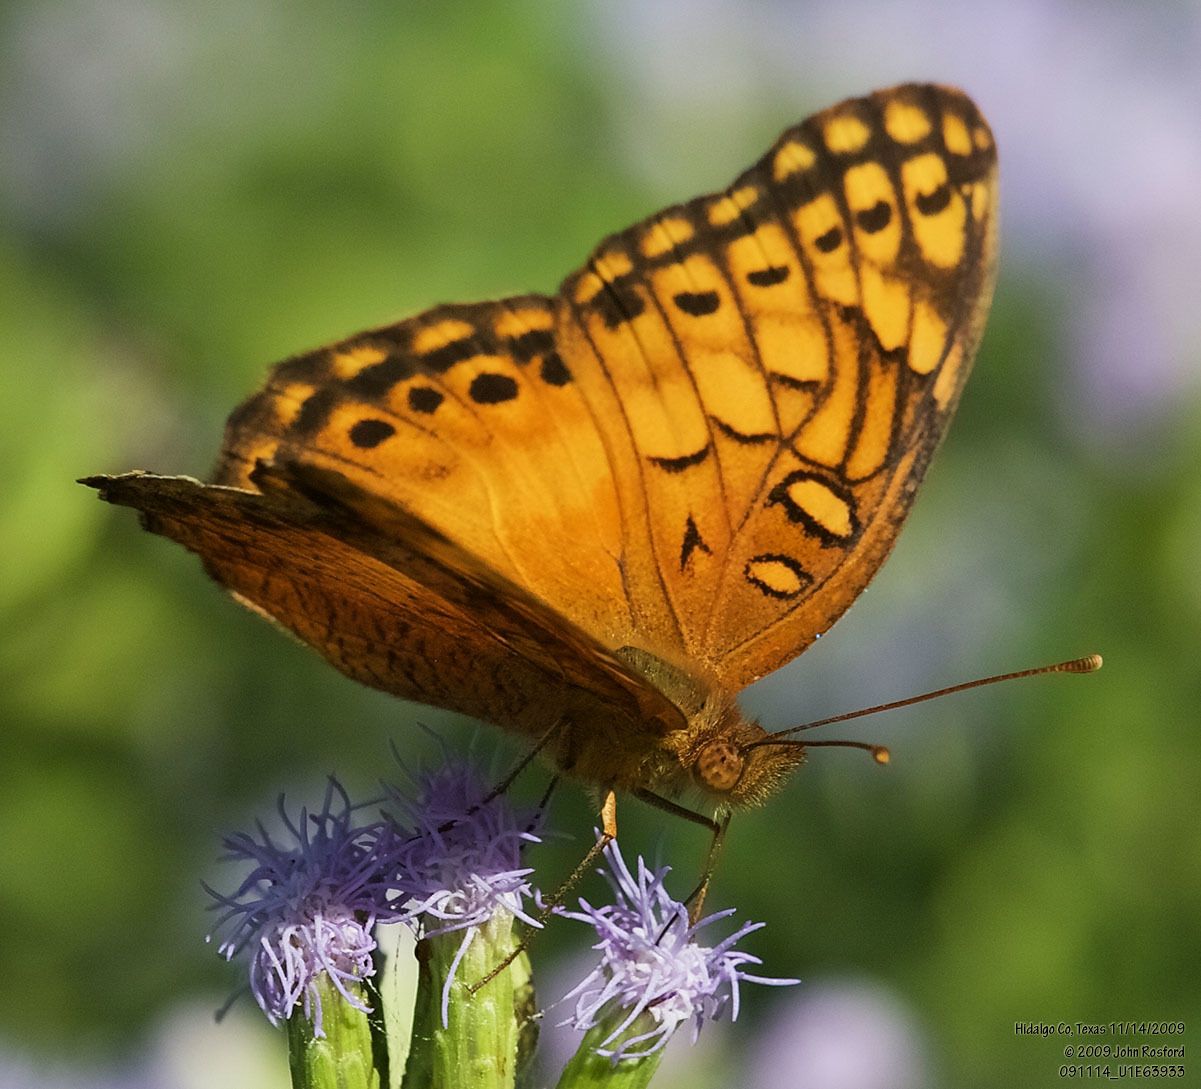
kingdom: Animalia
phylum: Arthropoda
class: Insecta
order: Lepidoptera
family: Nymphalidae
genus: Euptoieta
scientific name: Euptoieta hegesia
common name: Mexican fritillary
